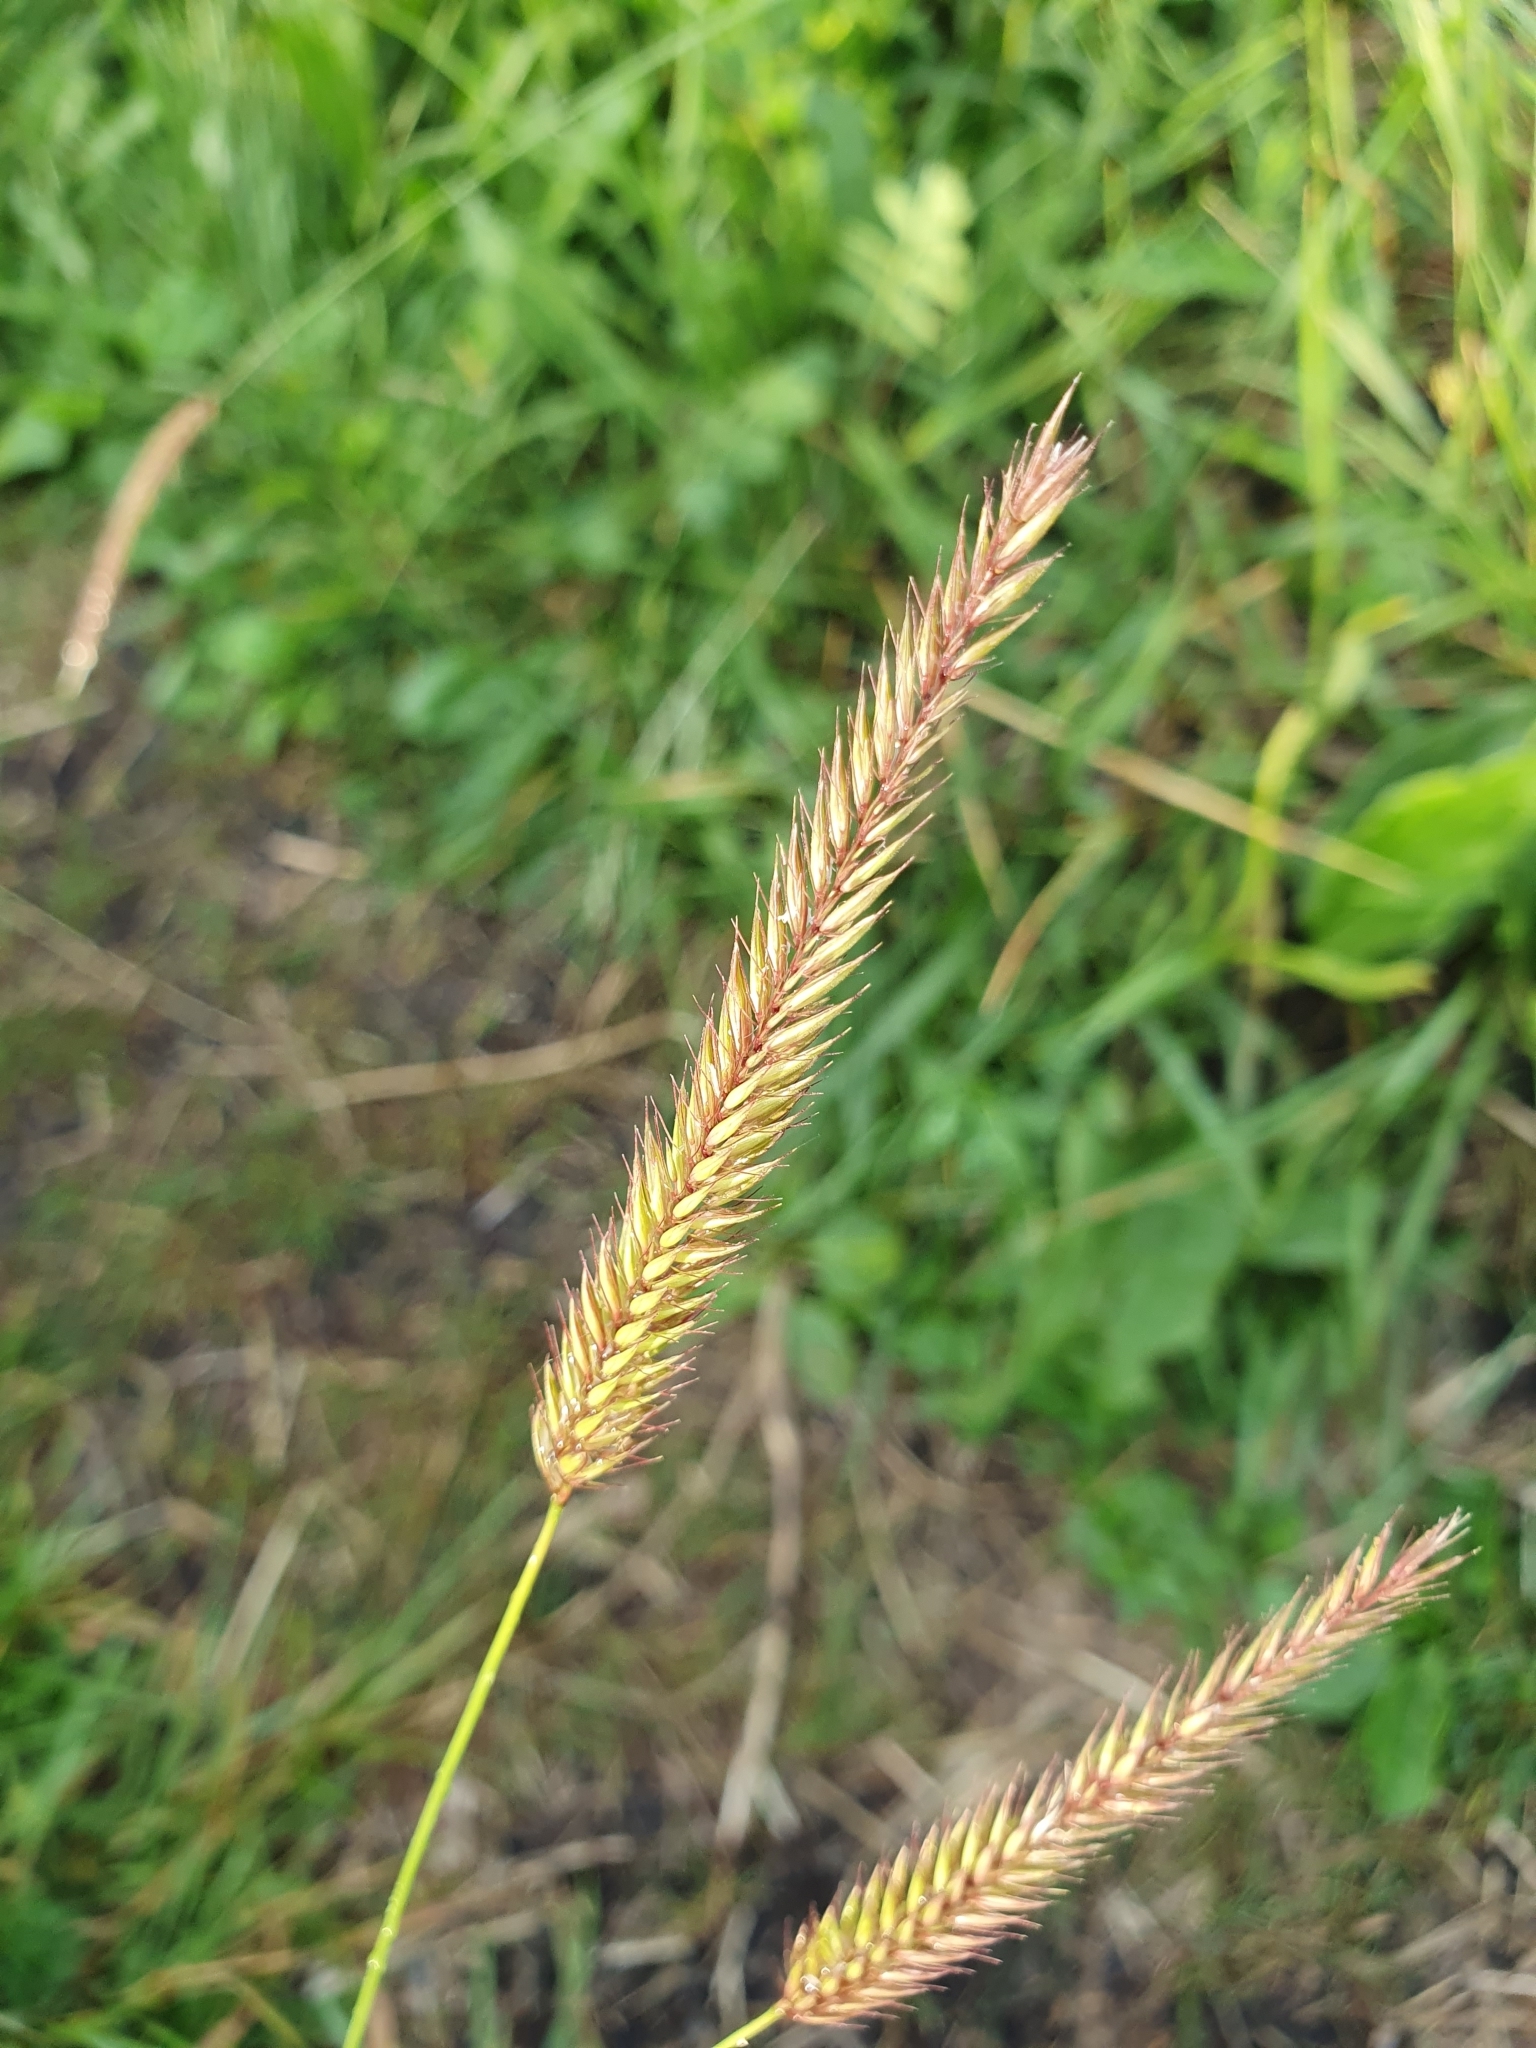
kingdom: Plantae
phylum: Tracheophyta
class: Liliopsida
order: Poales
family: Poaceae
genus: Hordeum
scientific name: Hordeum brevisubulatum
